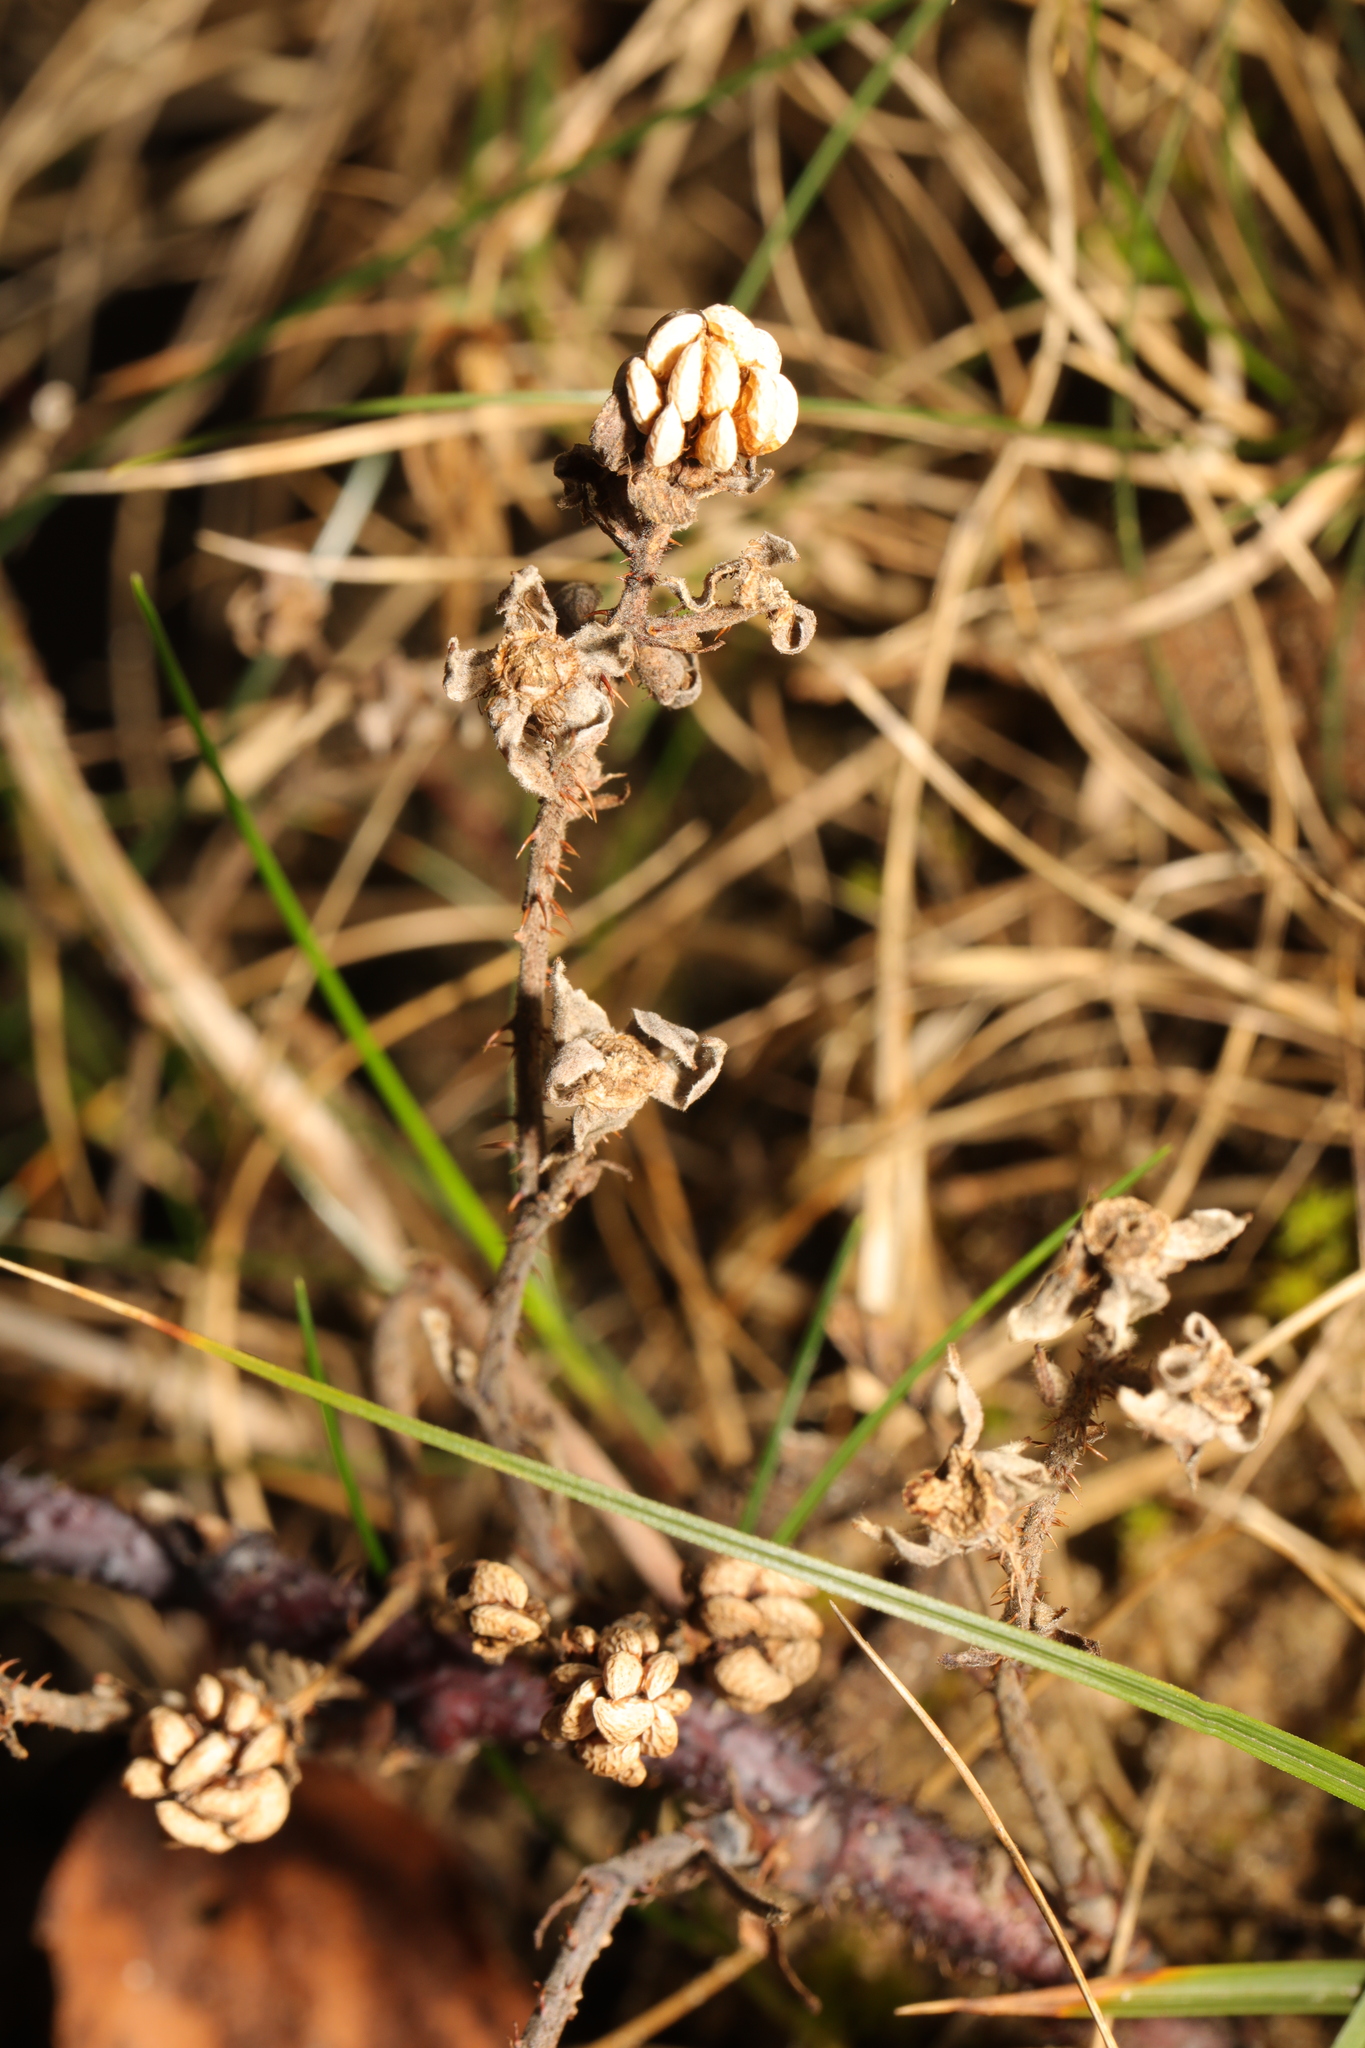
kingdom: Plantae
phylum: Tracheophyta
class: Magnoliopsida
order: Rosales
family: Rosaceae
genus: Rubus
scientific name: Rubus fruticosus
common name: Blackberry, bramble
